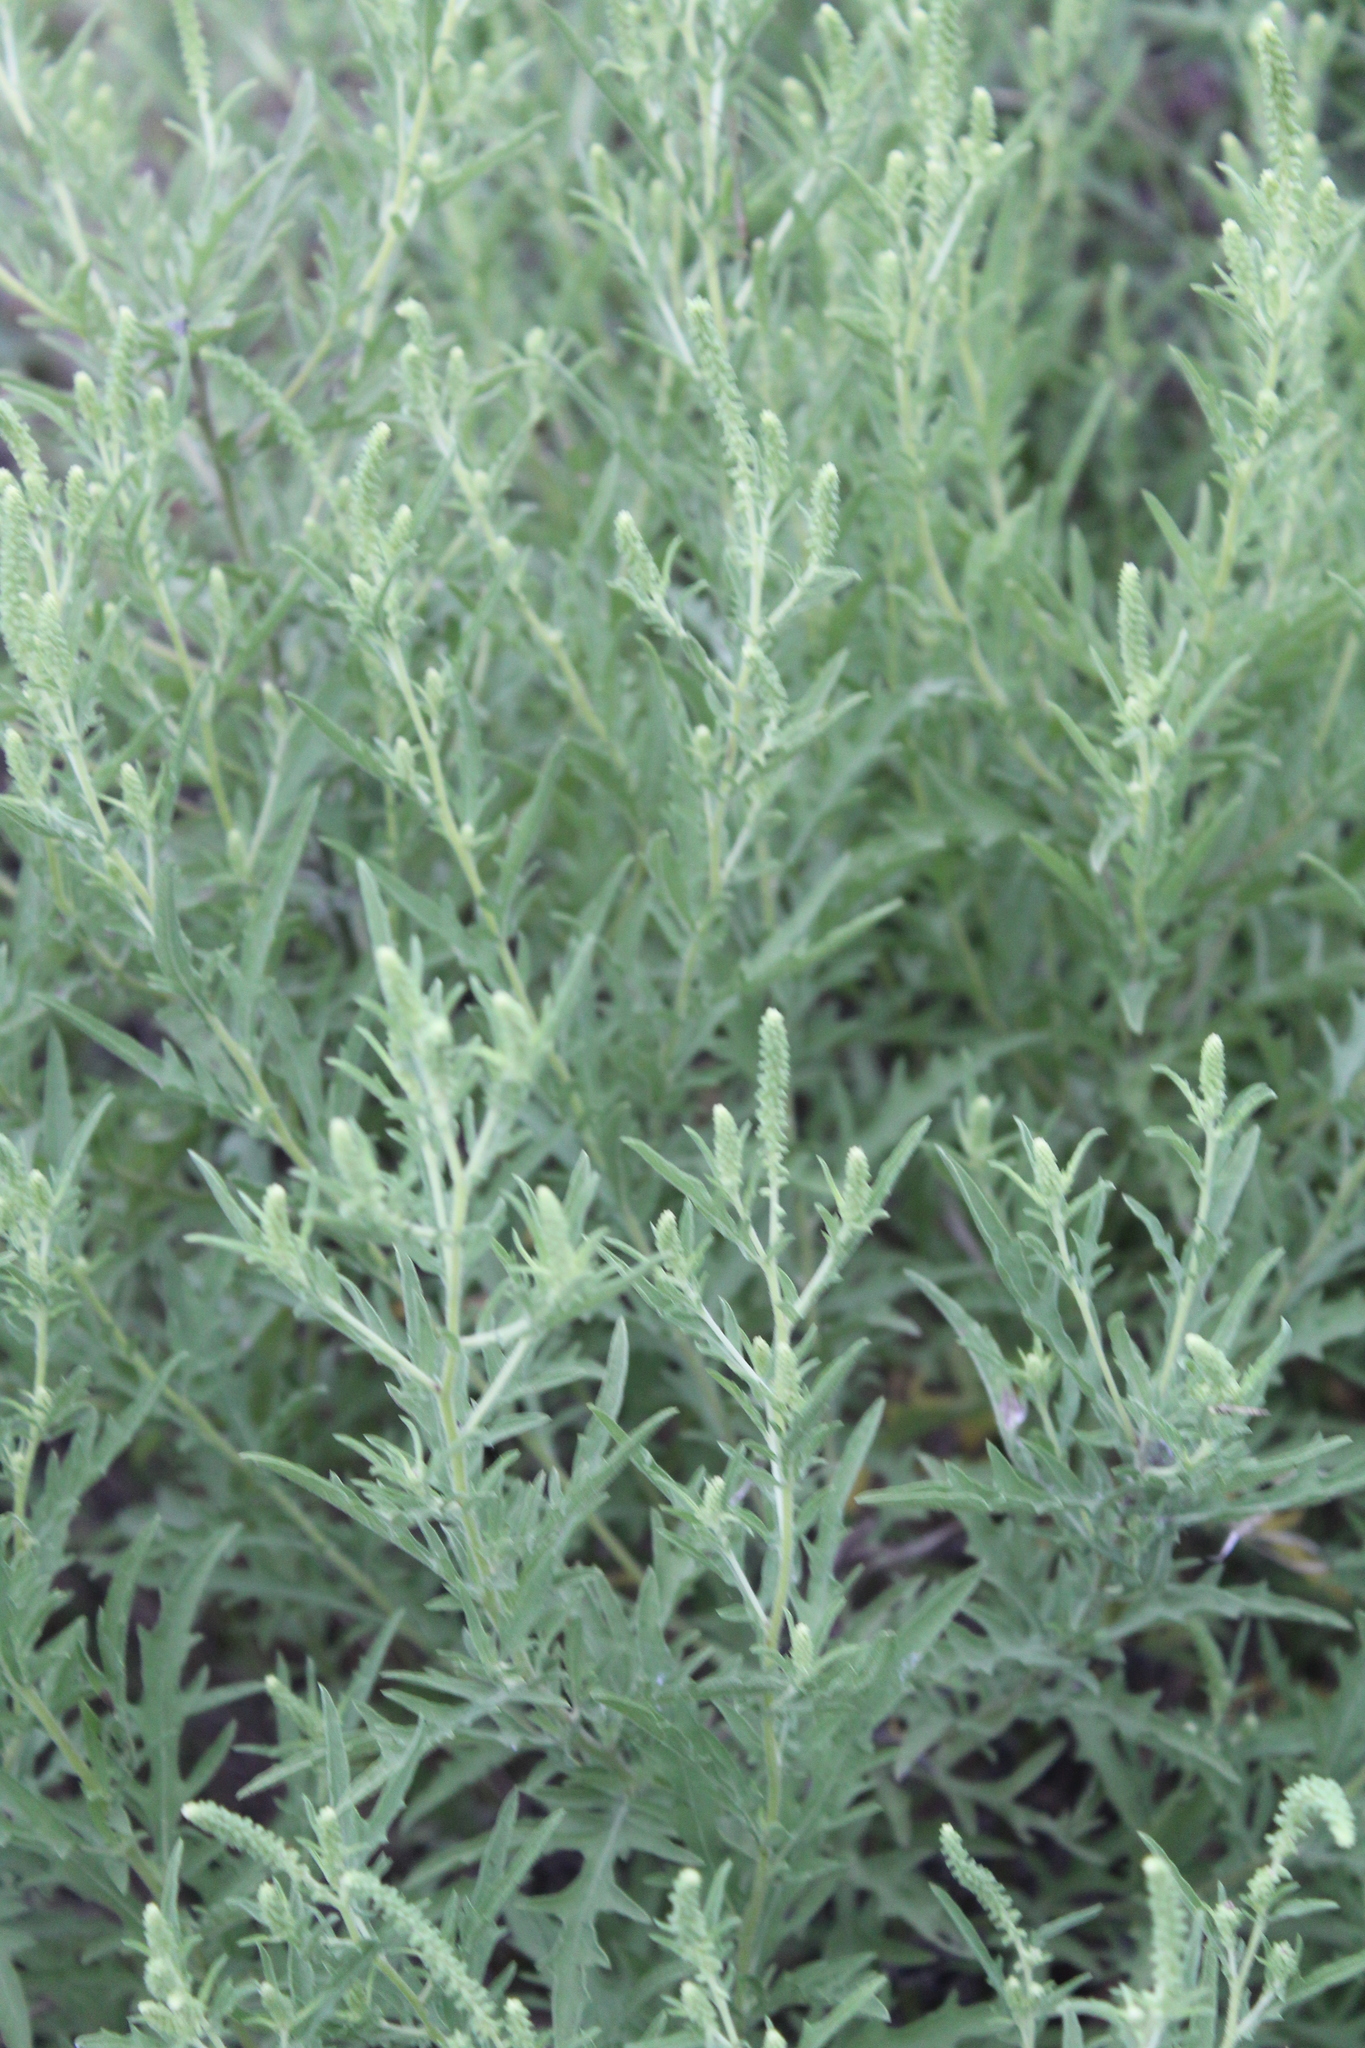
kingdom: Plantae
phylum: Tracheophyta
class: Magnoliopsida
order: Asterales
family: Asteraceae
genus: Ambrosia
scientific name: Ambrosia psilostachya
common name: Perennial ragweed
